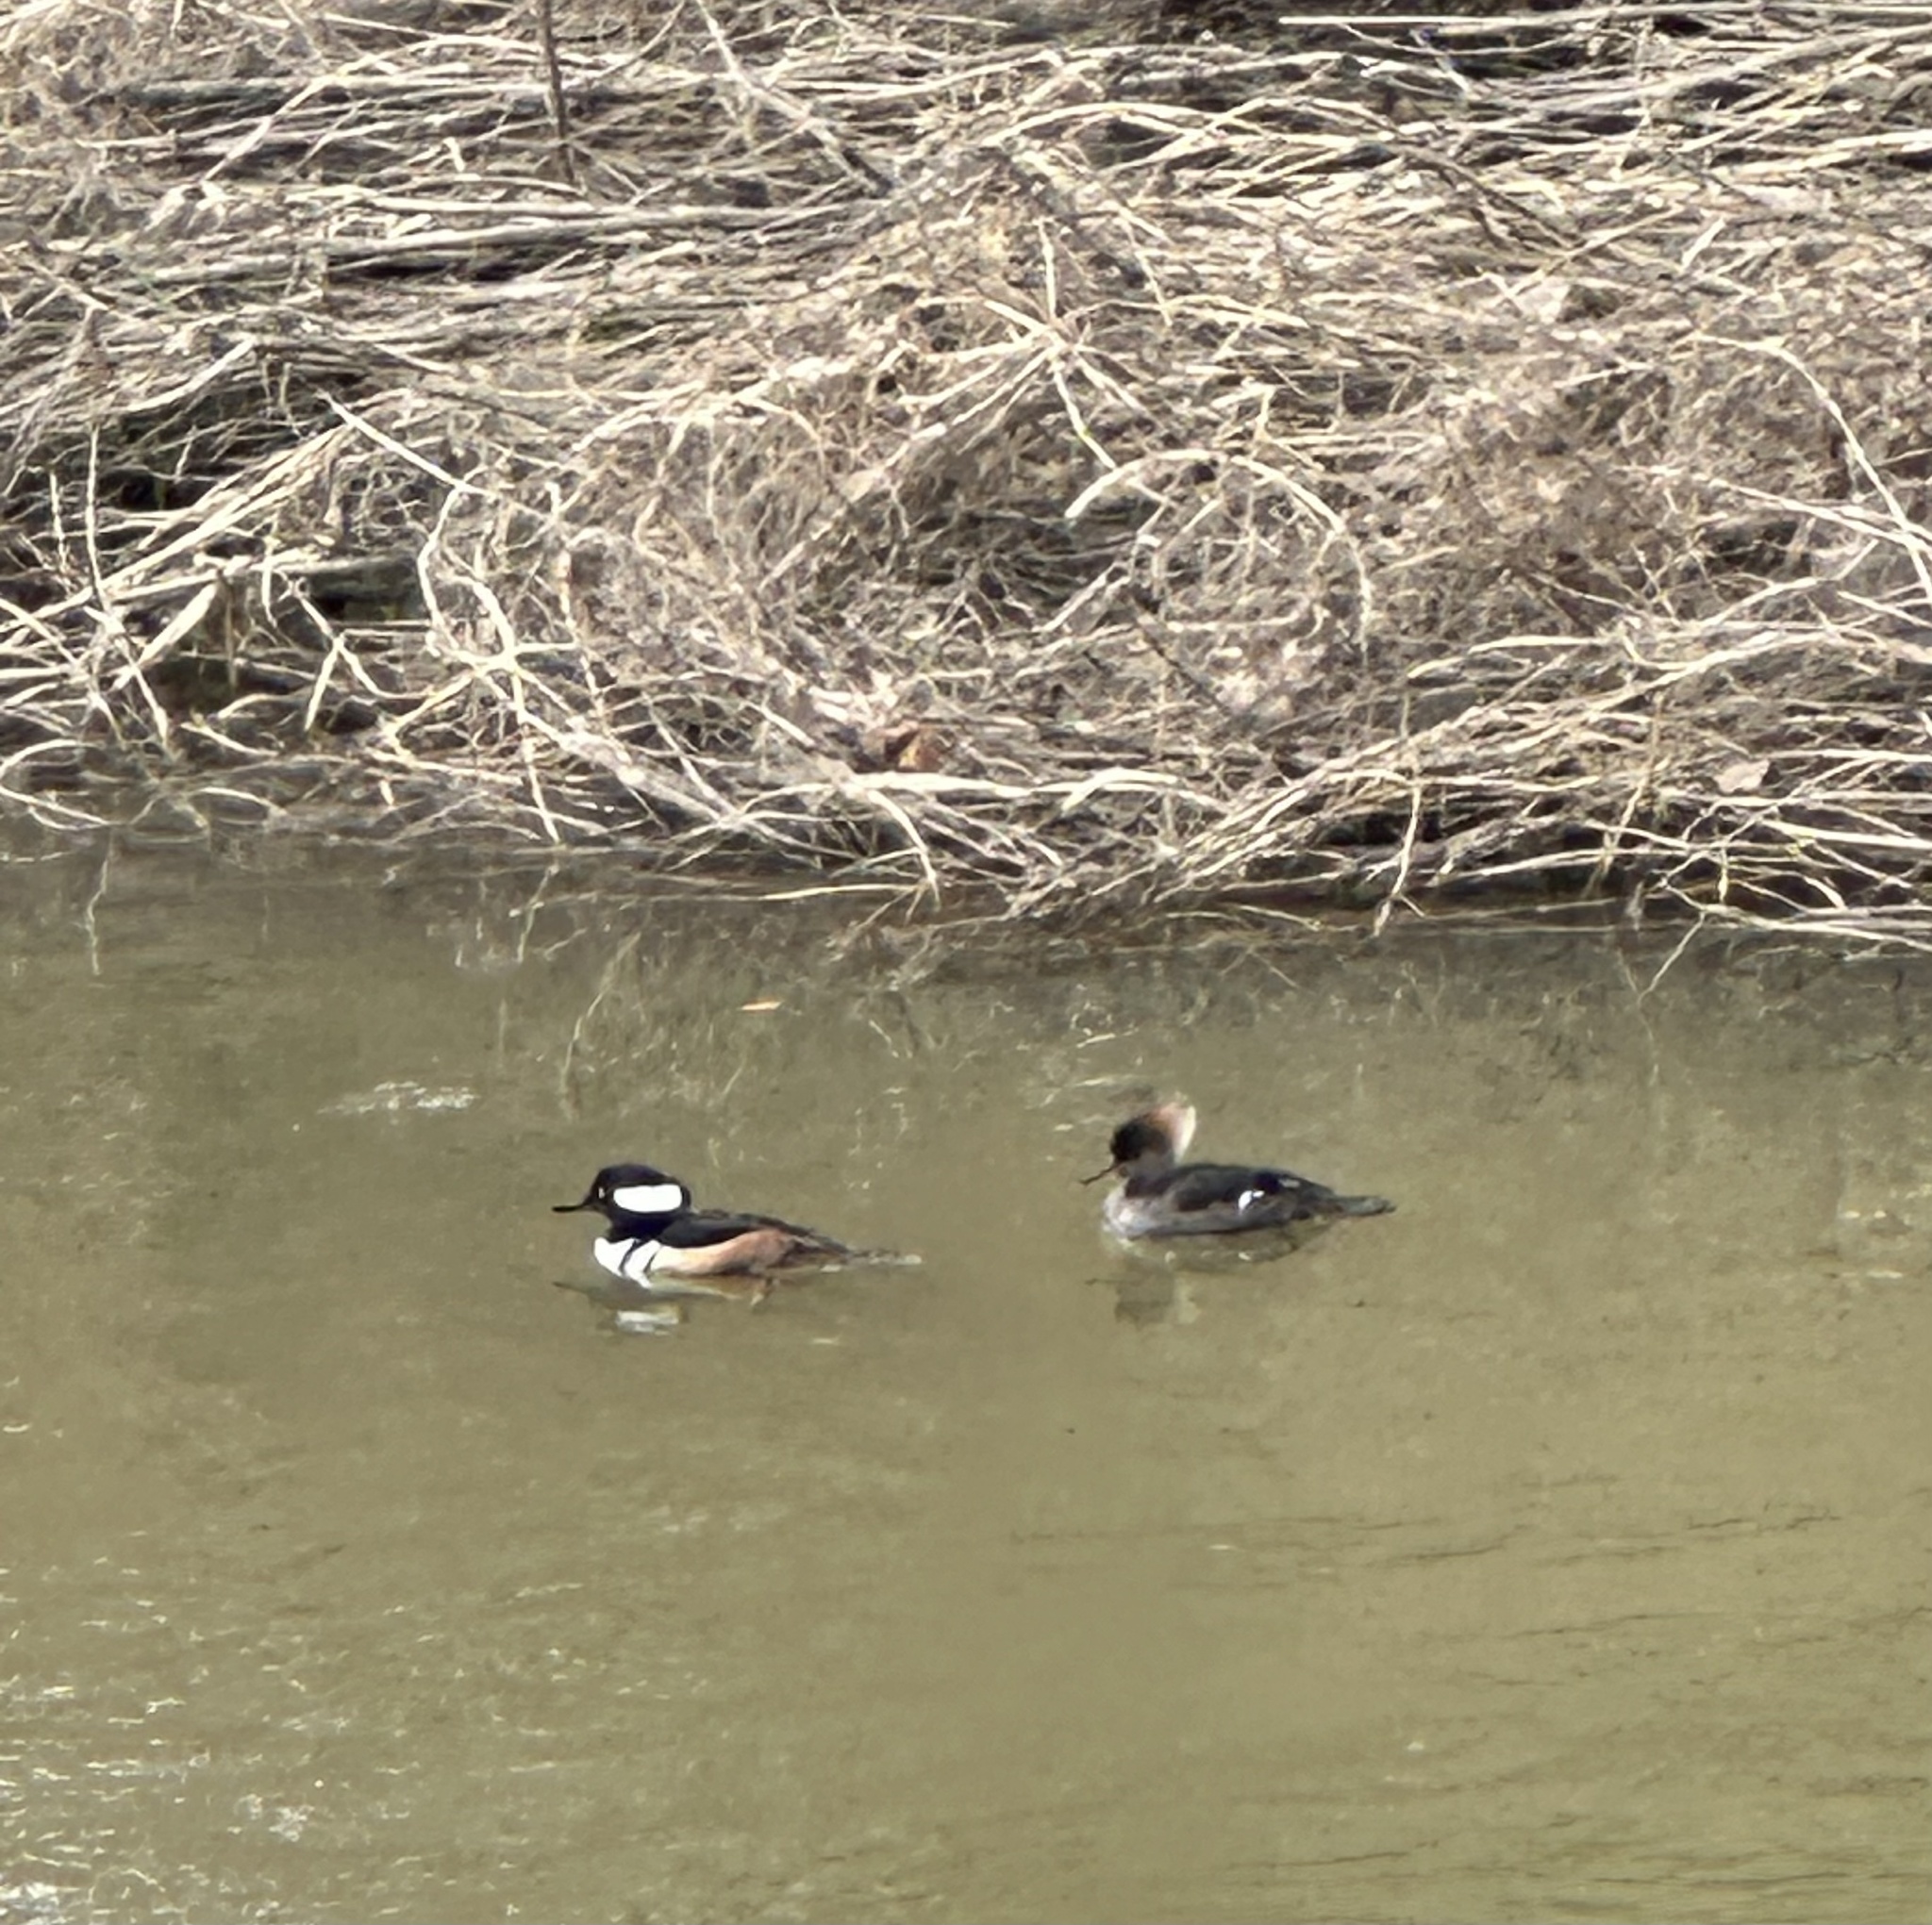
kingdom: Animalia
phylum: Chordata
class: Aves
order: Anseriformes
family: Anatidae
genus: Lophodytes
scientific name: Lophodytes cucullatus
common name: Hooded merganser
